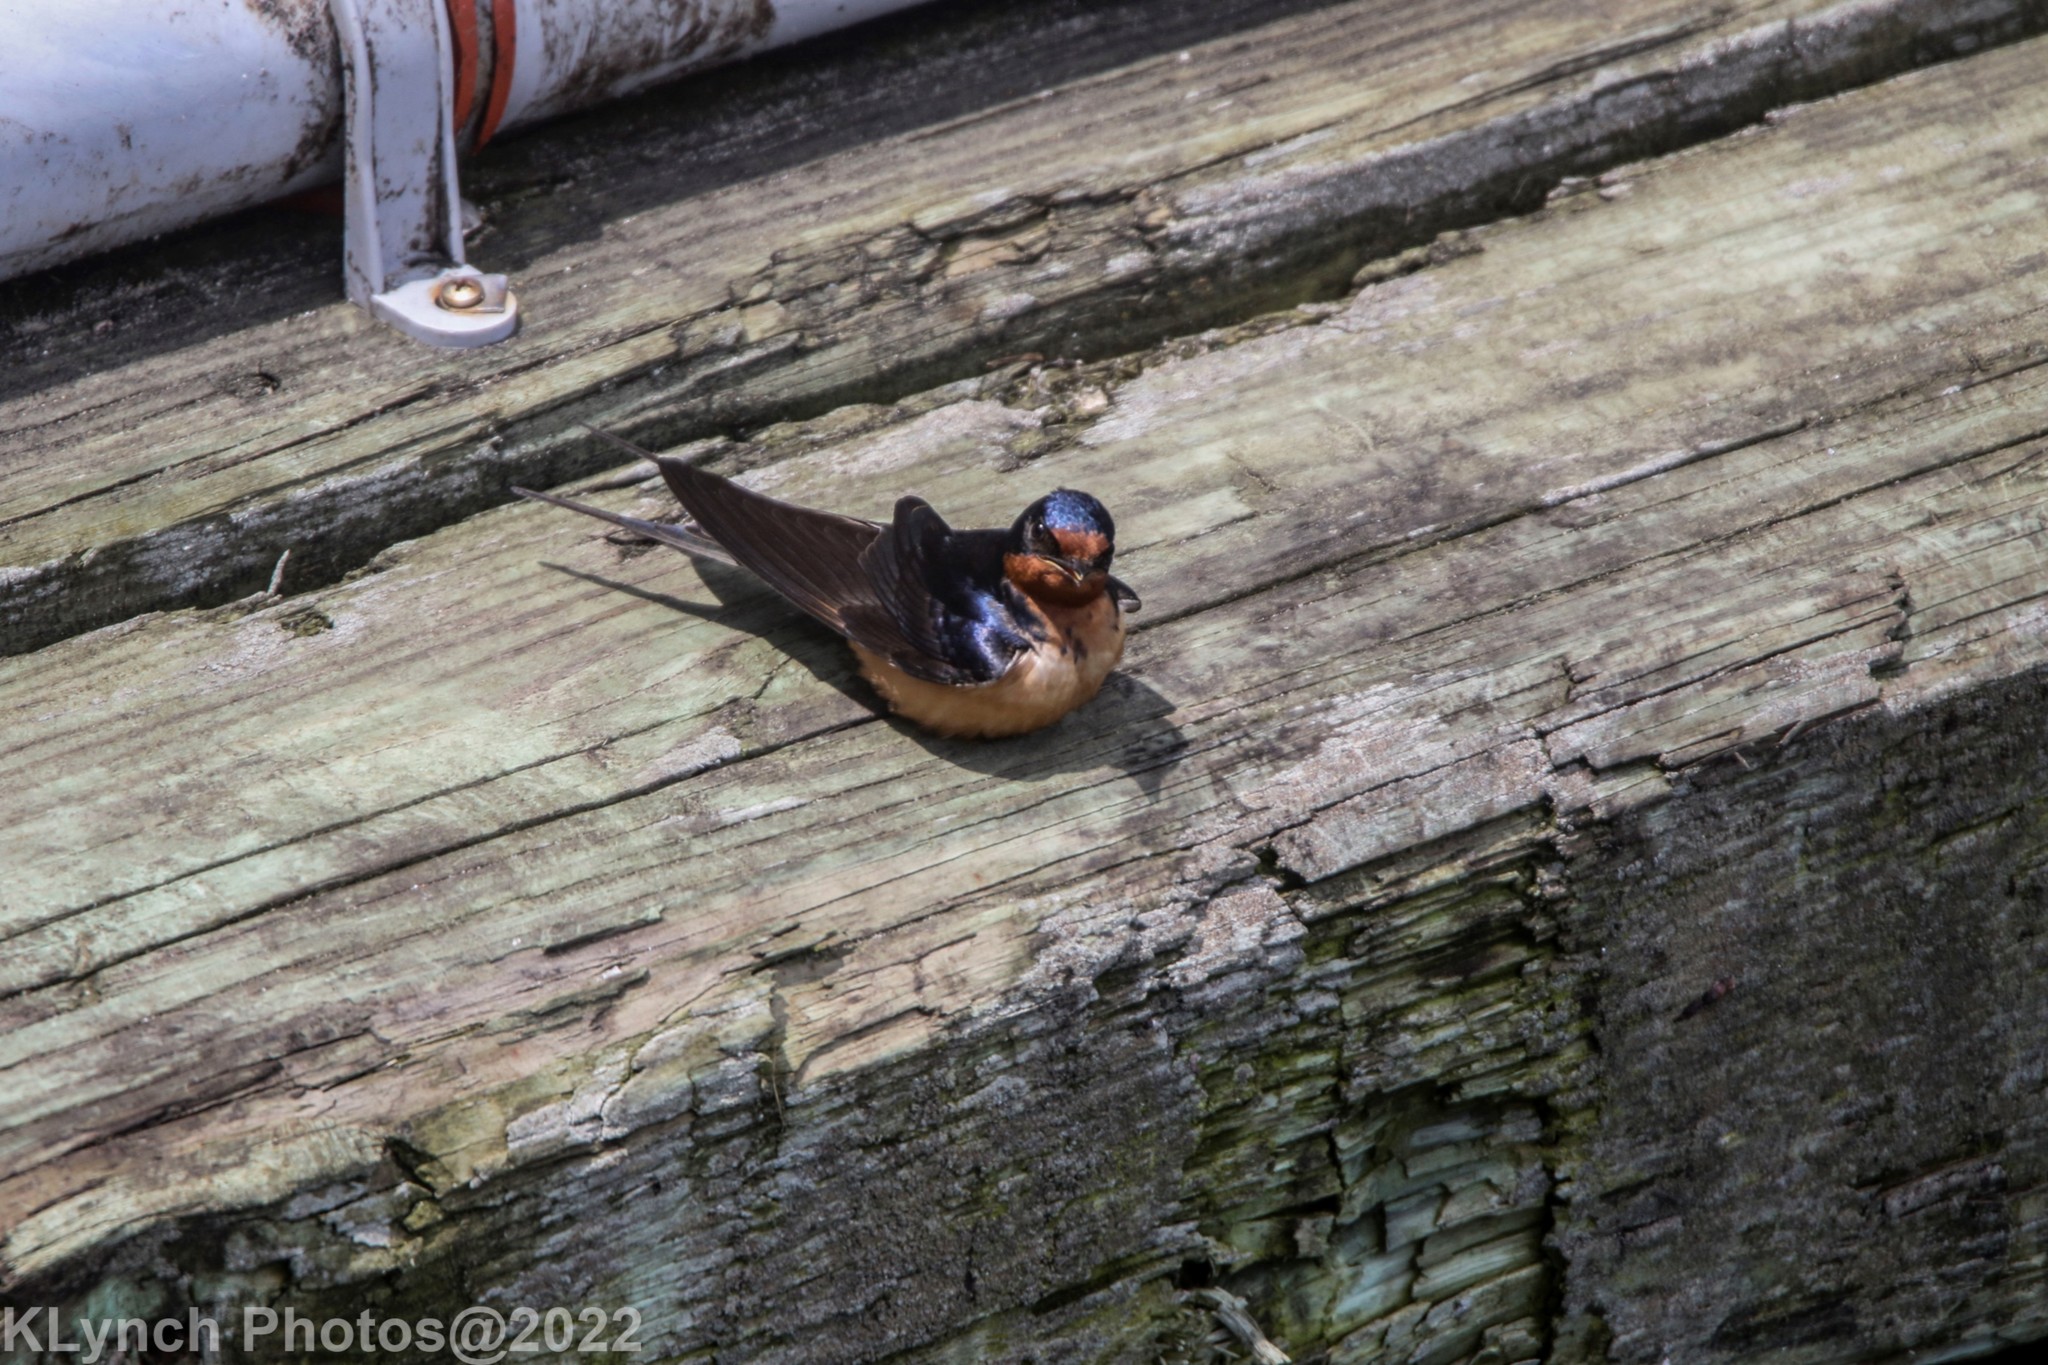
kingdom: Animalia
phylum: Chordata
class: Aves
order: Passeriformes
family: Hirundinidae
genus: Hirundo
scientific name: Hirundo rustica
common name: Barn swallow
